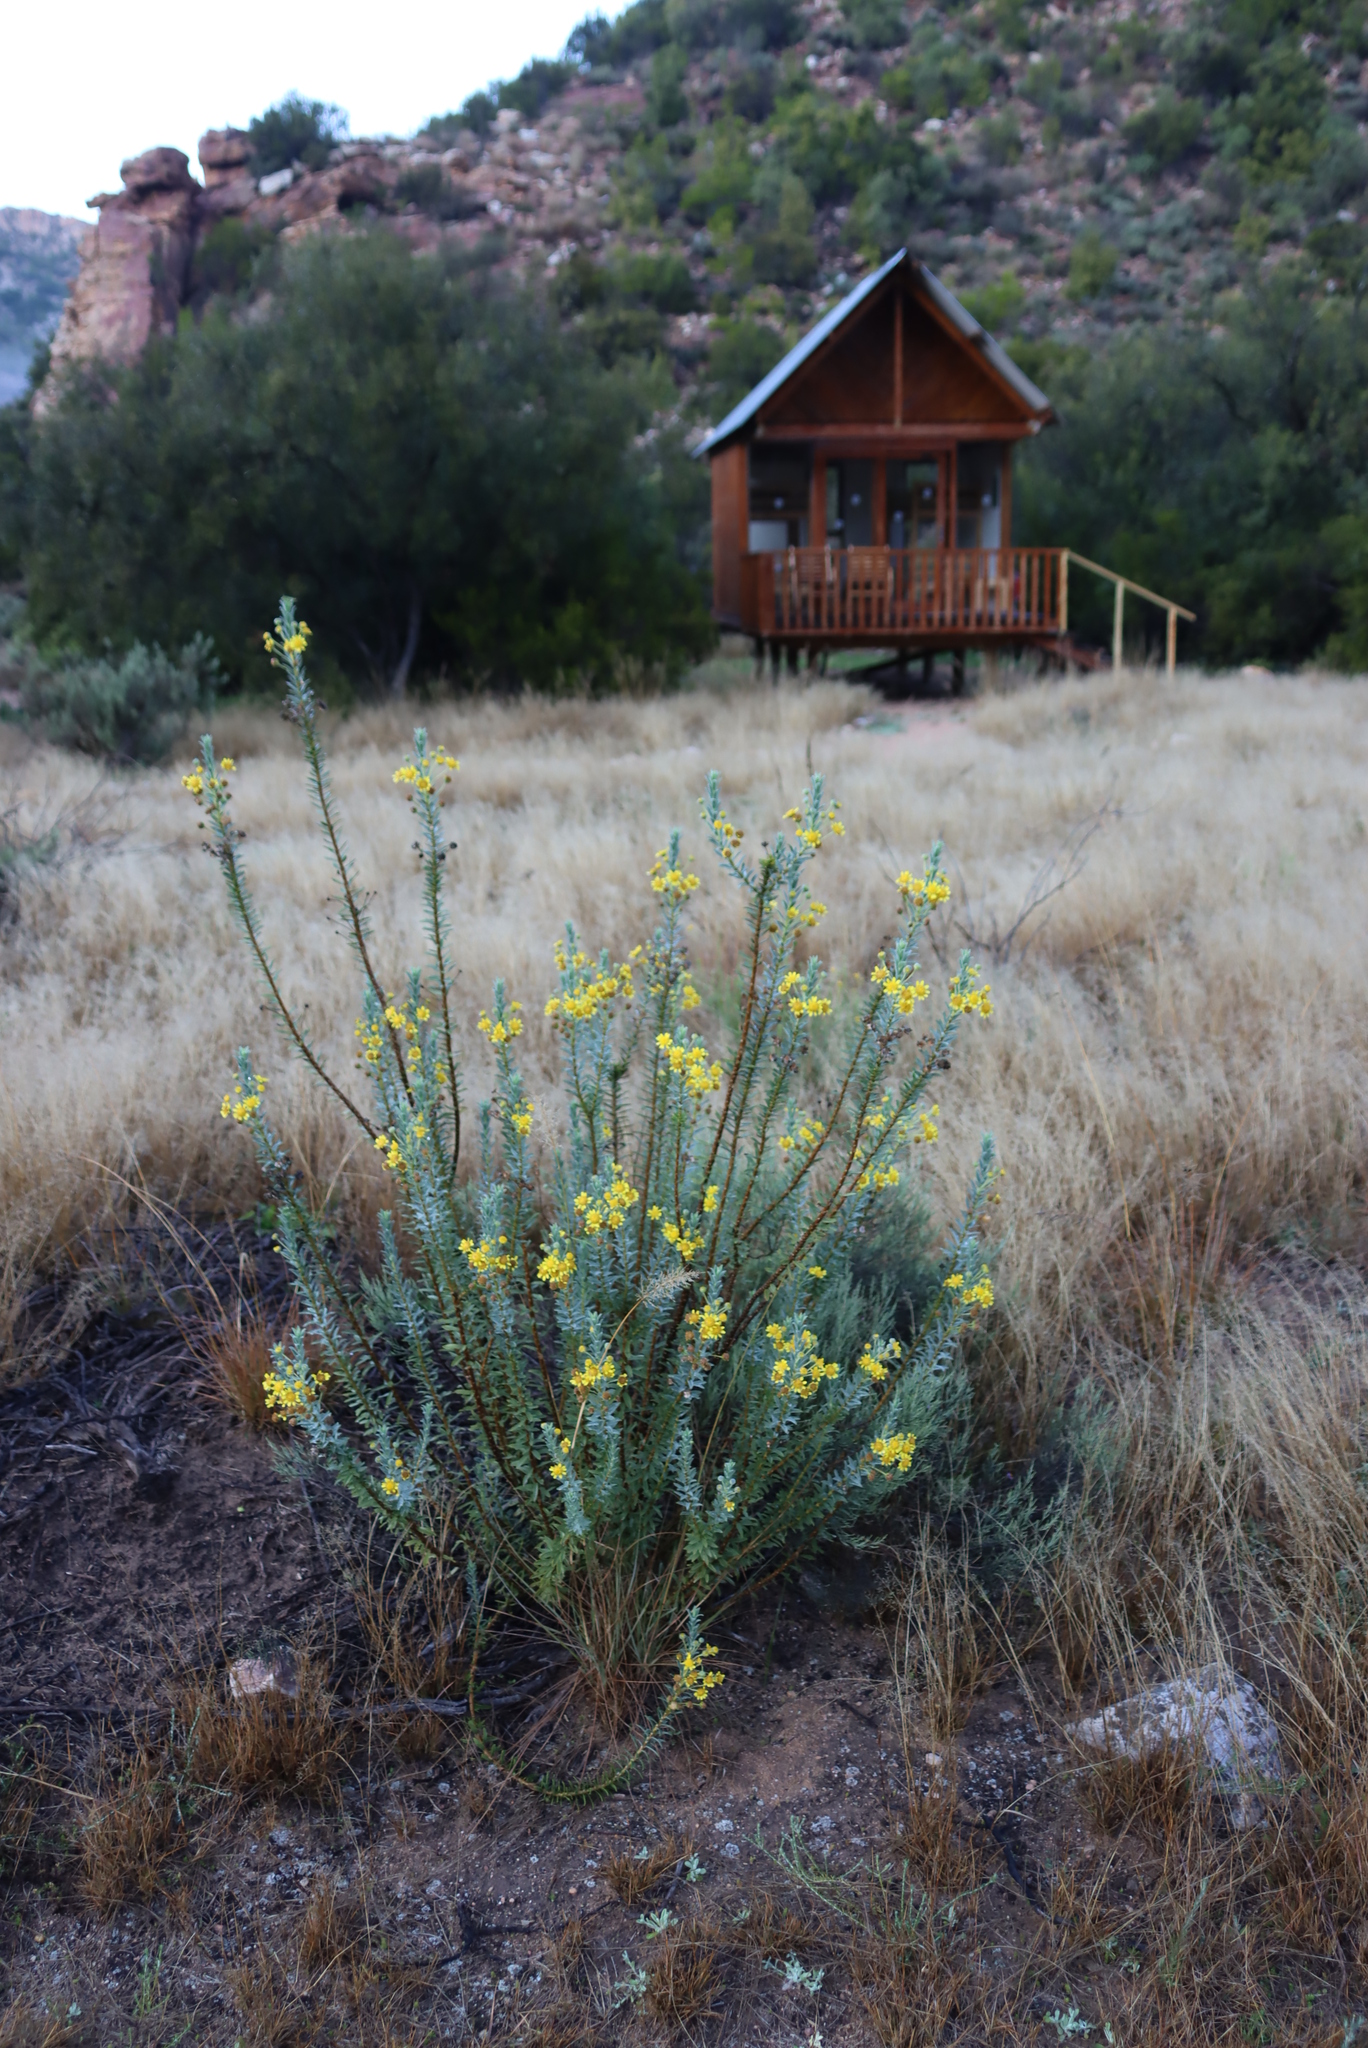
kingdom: Plantae
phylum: Tracheophyta
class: Magnoliopsida
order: Asterales
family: Asteraceae
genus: Euryops
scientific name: Euryops lateriflorus
